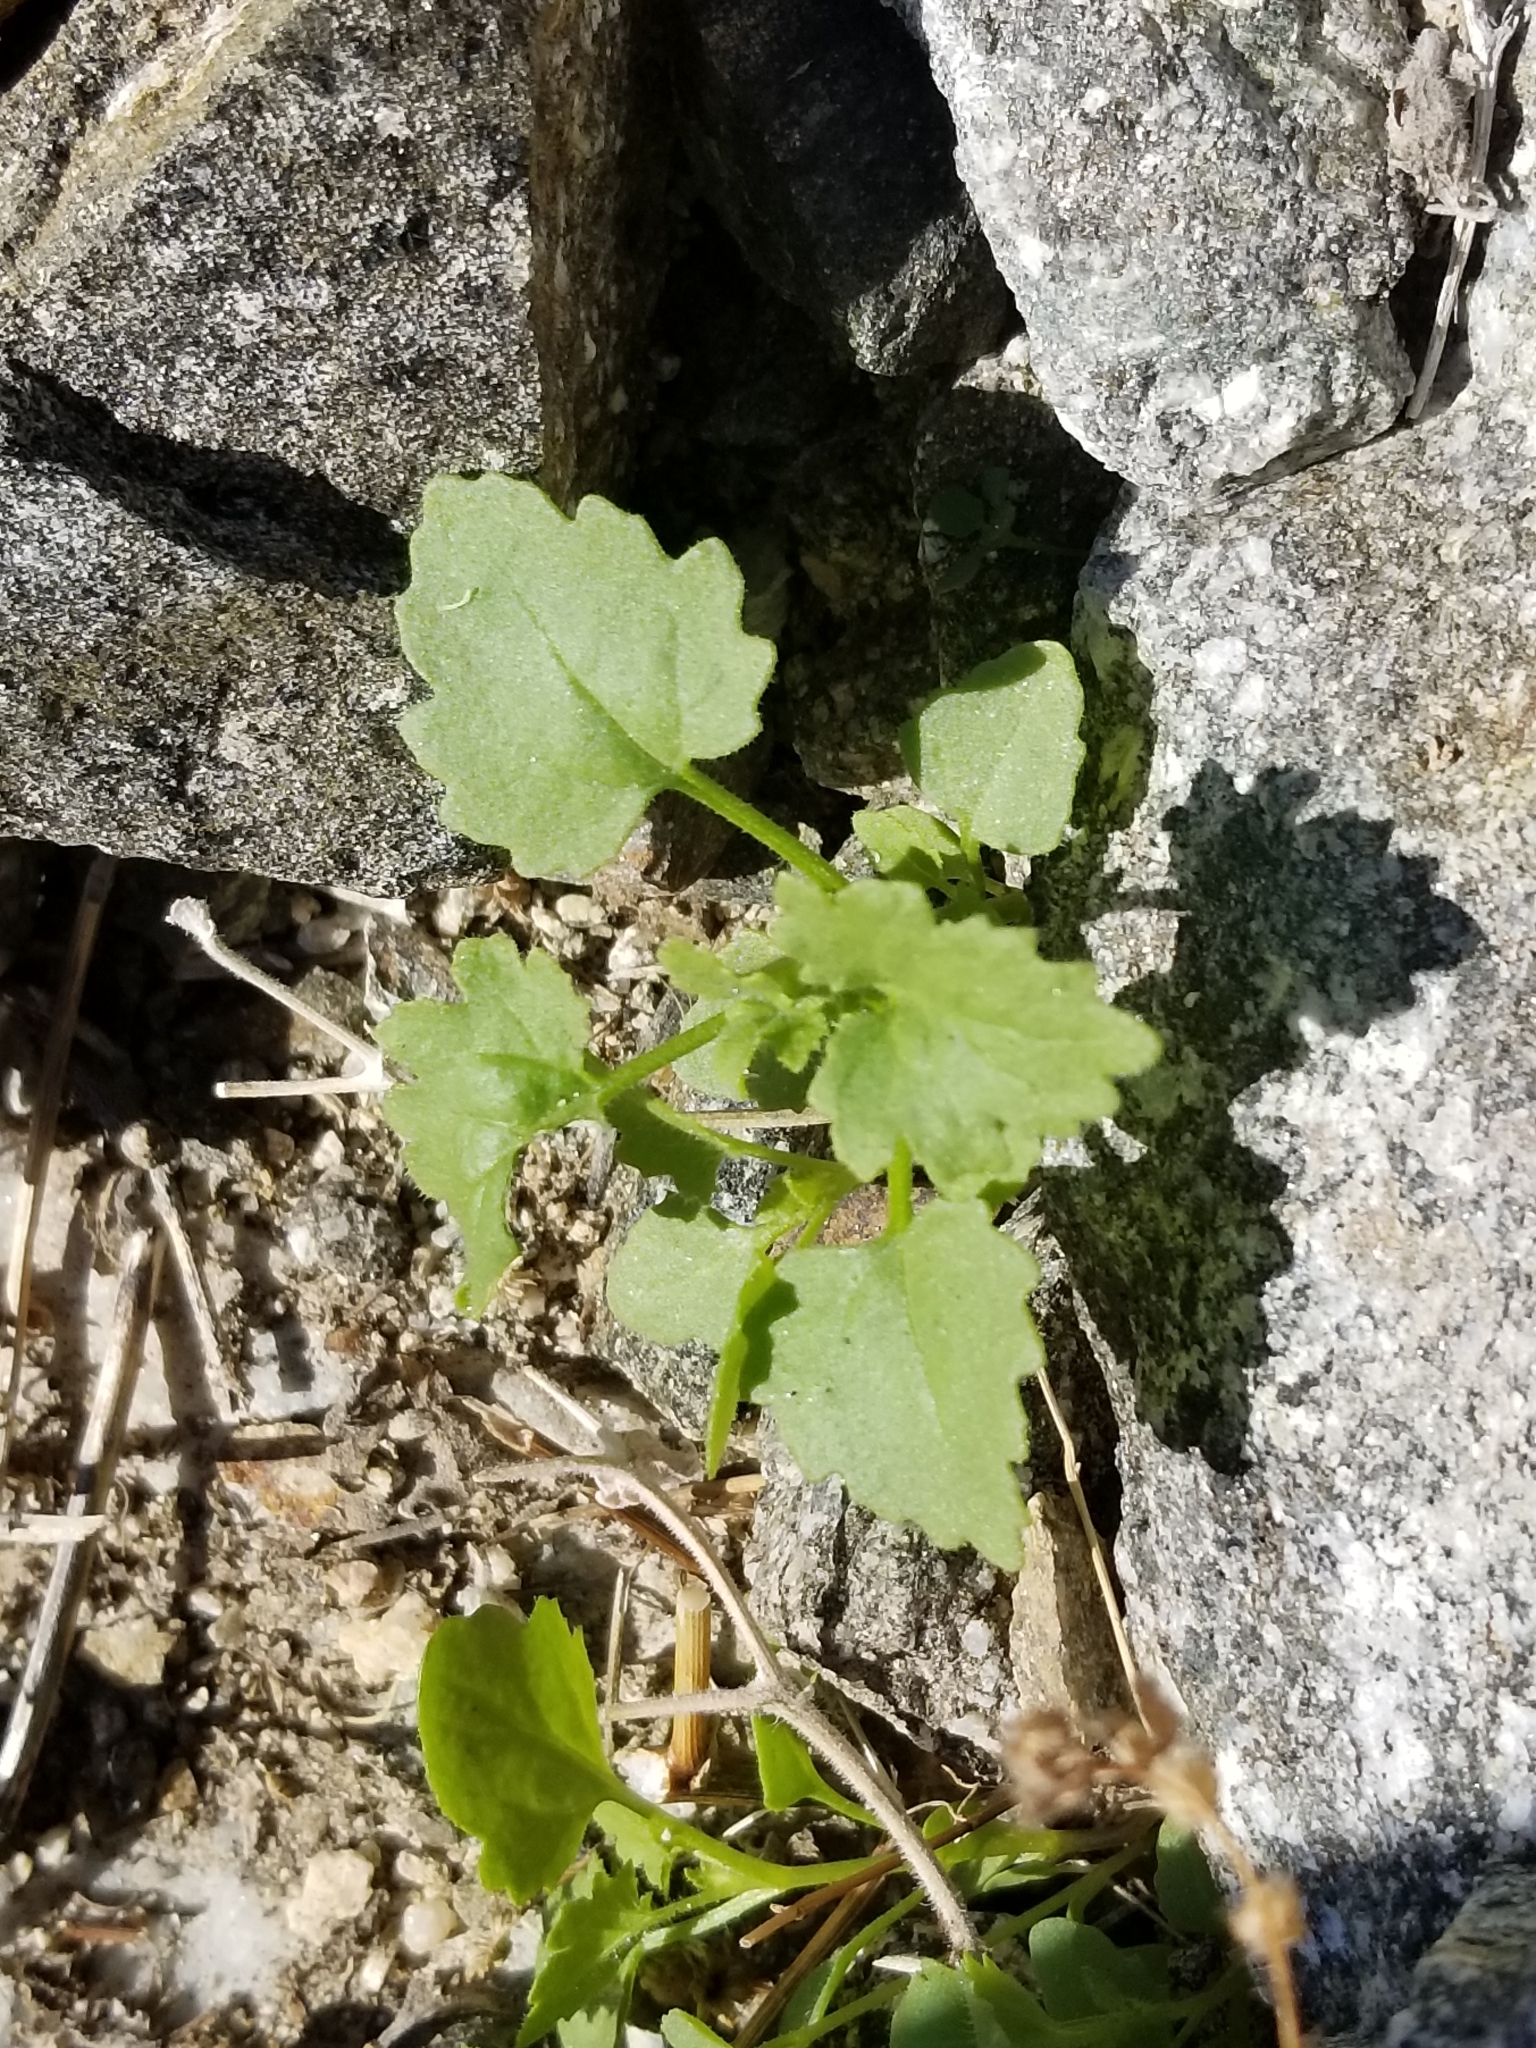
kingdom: Plantae
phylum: Tracheophyta
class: Magnoliopsida
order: Asterales
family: Asteraceae
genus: Laphamia
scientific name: Laphamia emoryi
